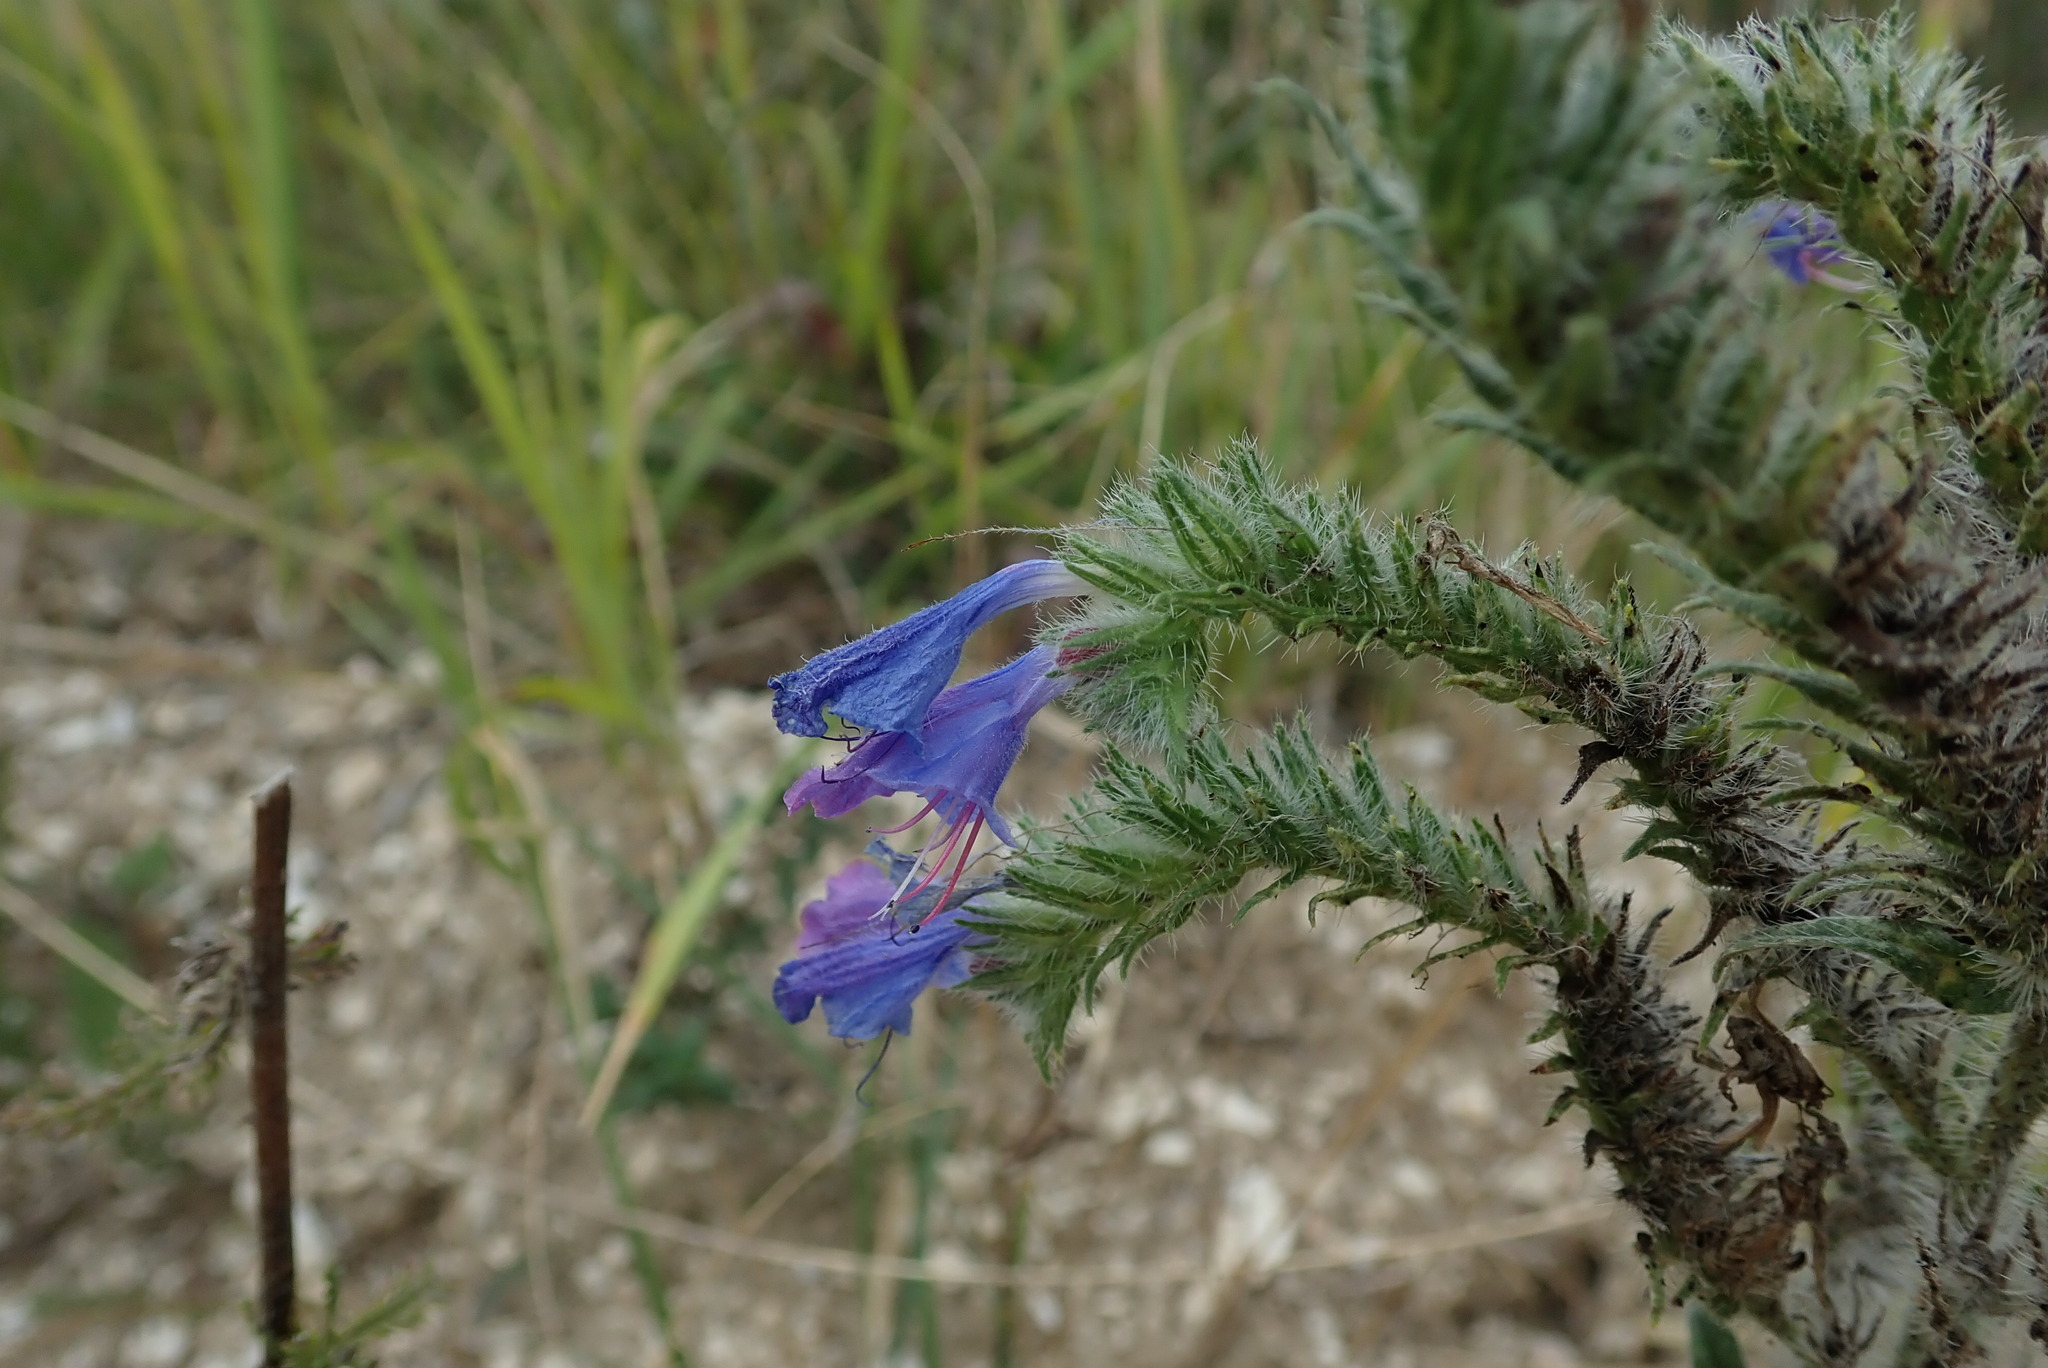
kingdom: Plantae
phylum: Tracheophyta
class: Magnoliopsida
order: Boraginales
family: Boraginaceae
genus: Echium
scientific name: Echium vulgare
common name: Common viper's bugloss
